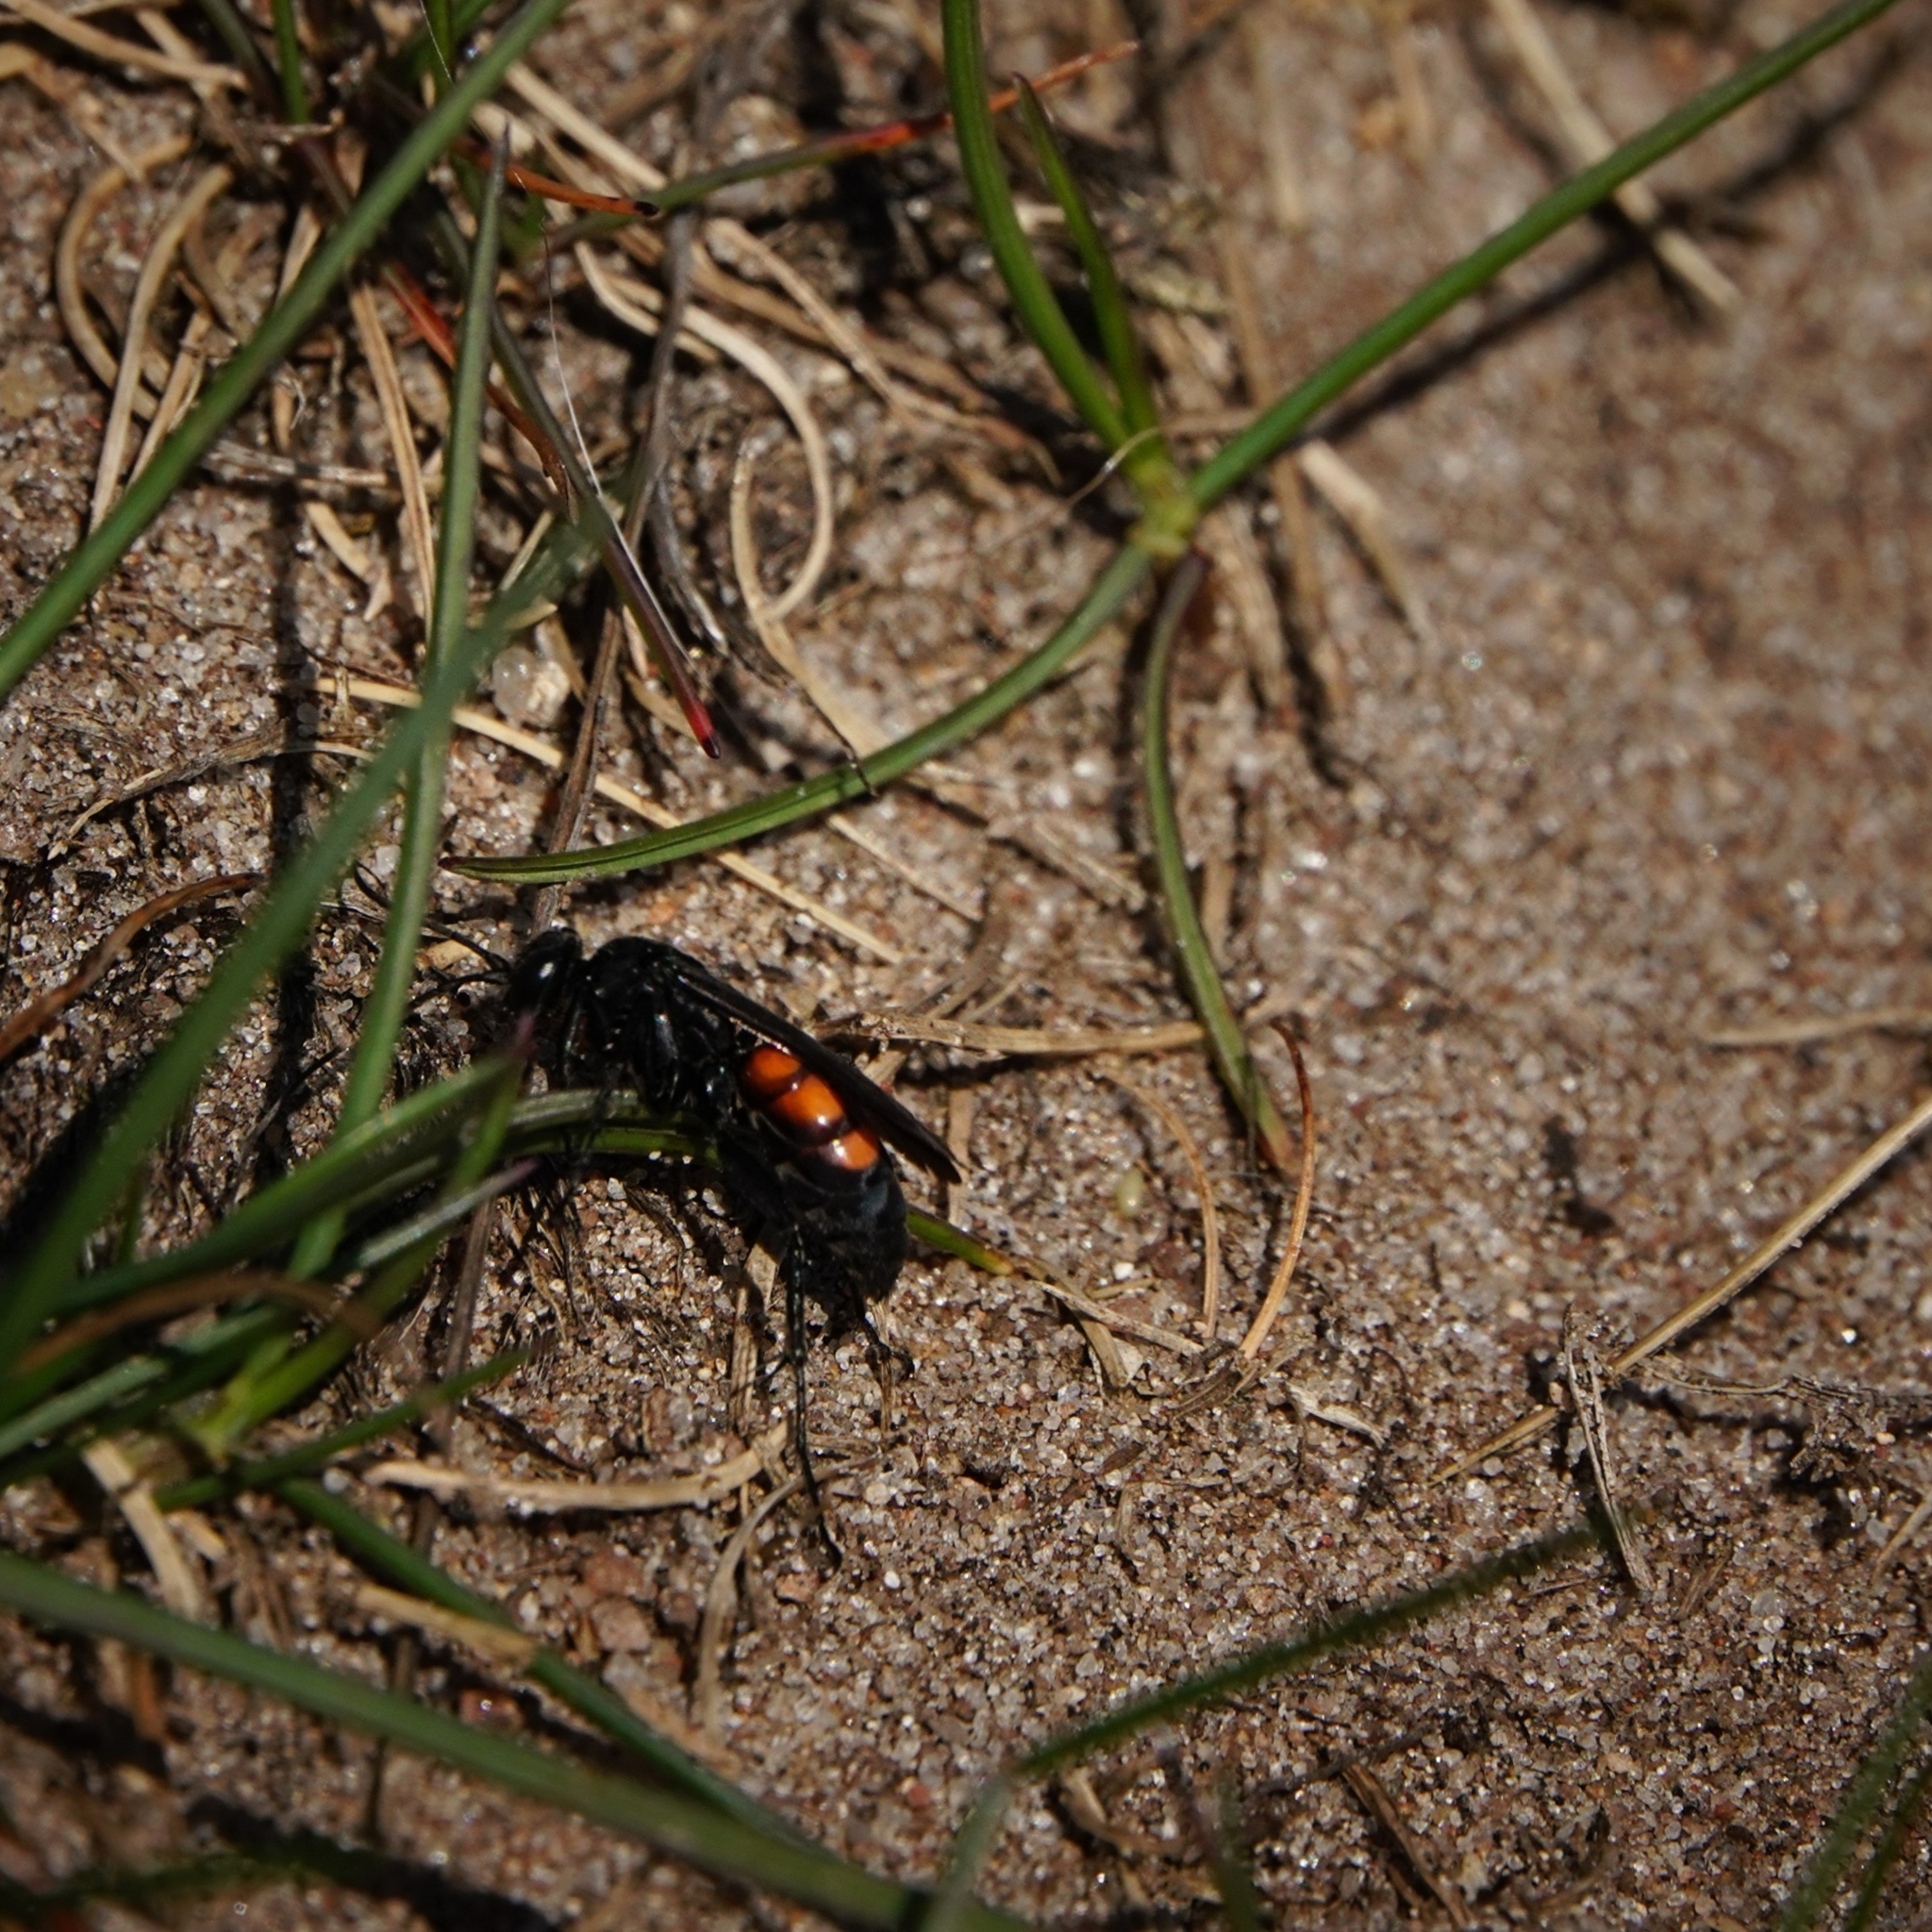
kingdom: Animalia
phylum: Arthropoda
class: Insecta
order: Hymenoptera
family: Pompilidae
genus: Anoplius
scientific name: Anoplius viaticus
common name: Black banded spider wasp
